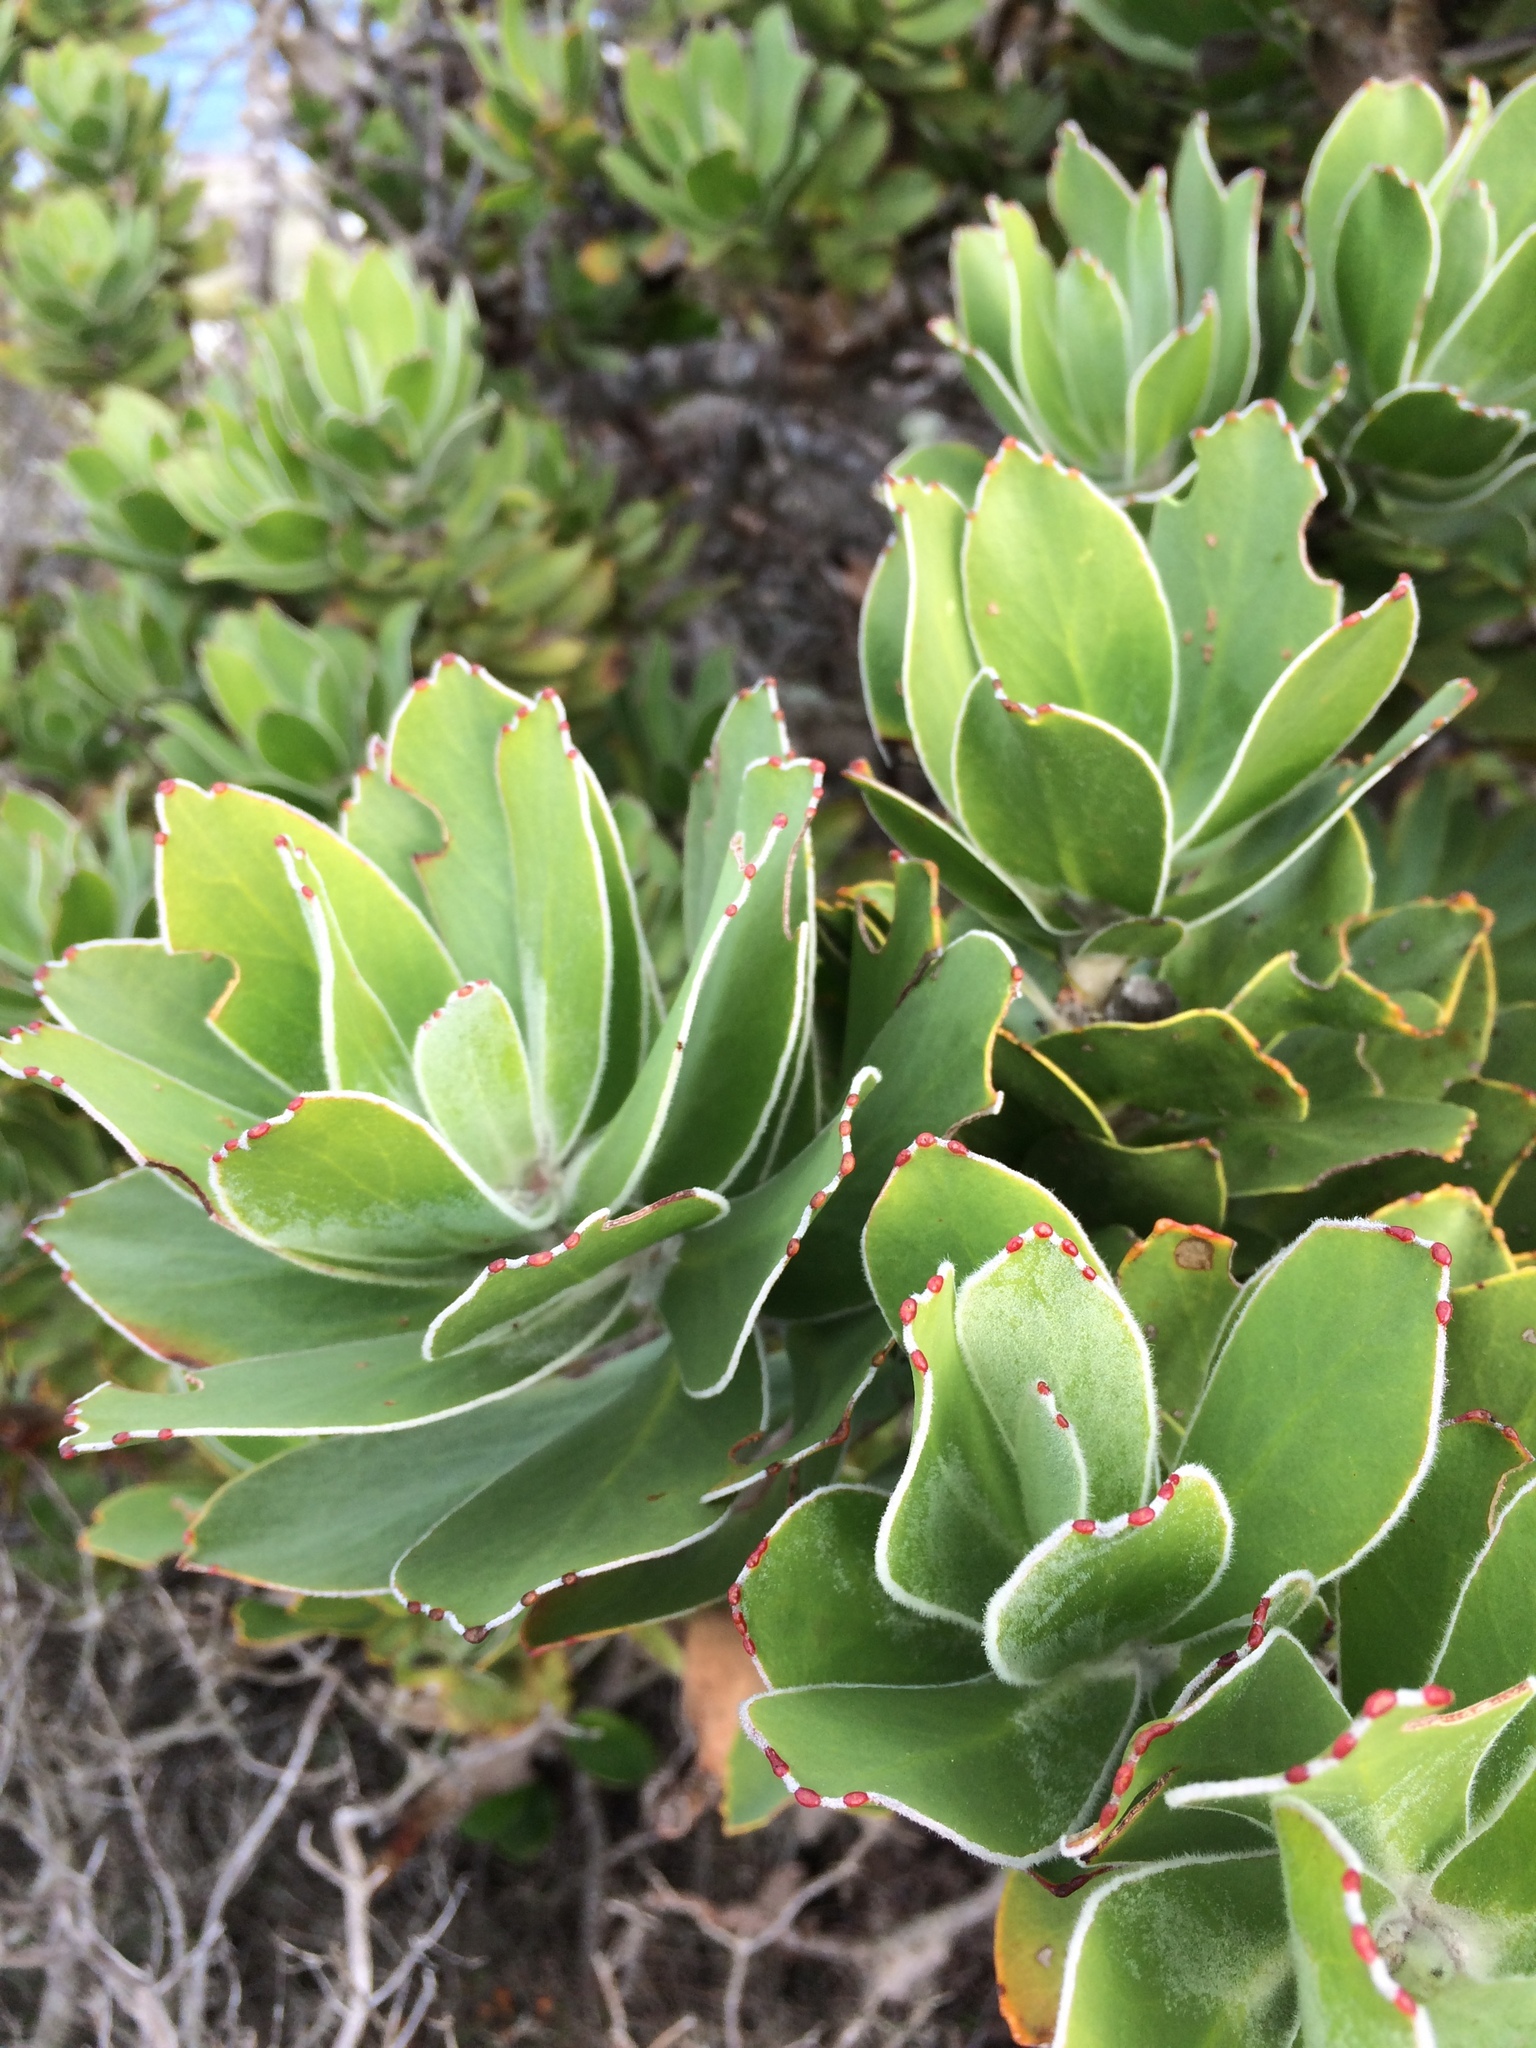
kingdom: Plantae
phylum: Tracheophyta
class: Magnoliopsida
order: Proteales
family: Proteaceae
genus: Leucospermum
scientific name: Leucospermum conocarpodendron
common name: Tree pincushion
